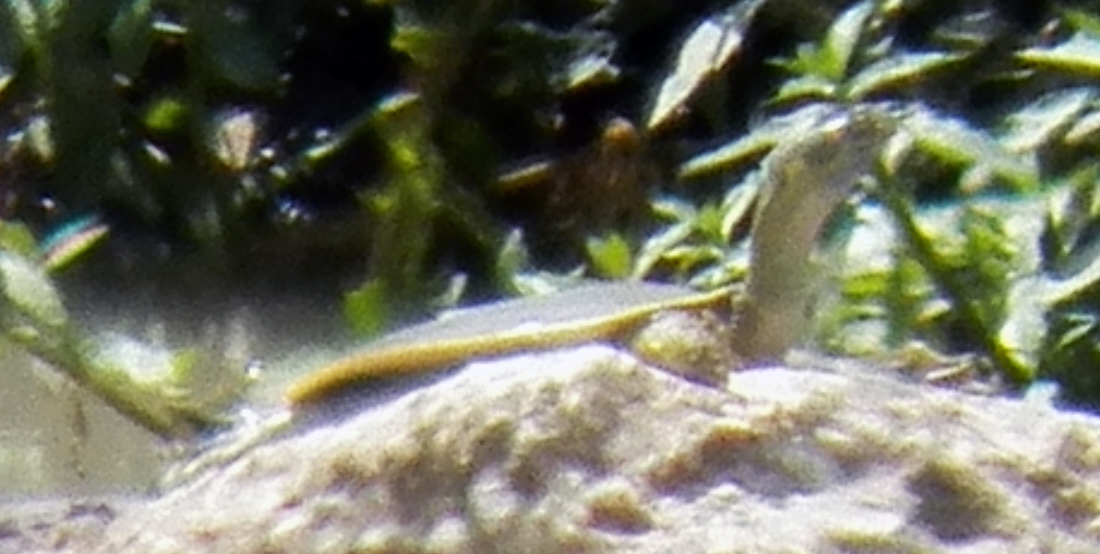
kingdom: Animalia
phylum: Chordata
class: Testudines
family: Trionychidae
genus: Apalone
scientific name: Apalone spinifera
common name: Spiny softshell turtle
